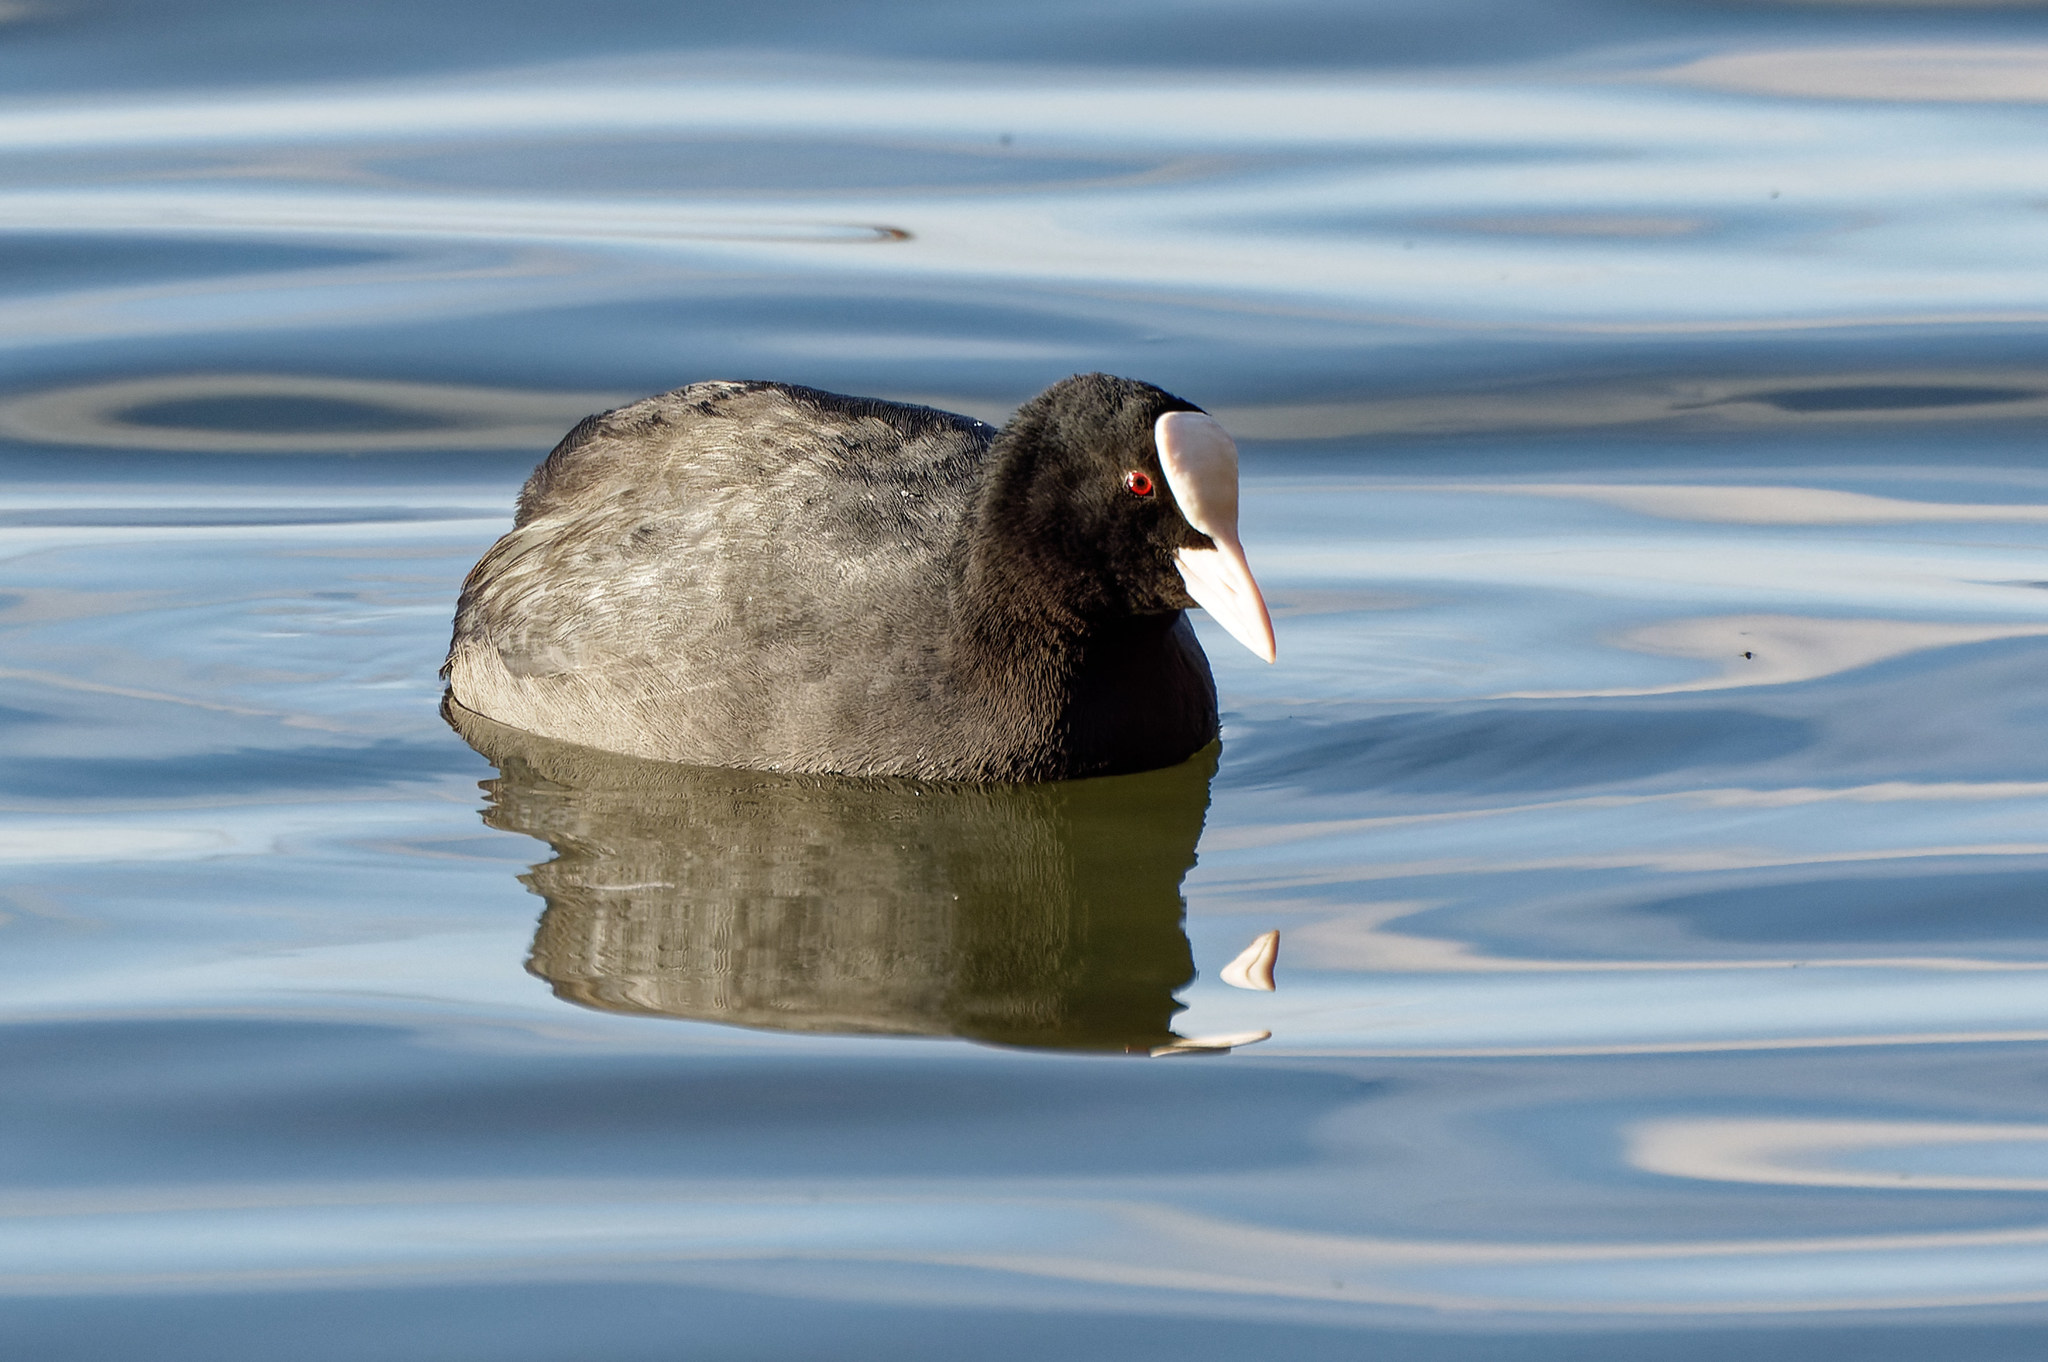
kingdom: Animalia
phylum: Chordata
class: Aves
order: Gruiformes
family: Rallidae
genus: Fulica
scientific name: Fulica atra
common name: Eurasian coot
